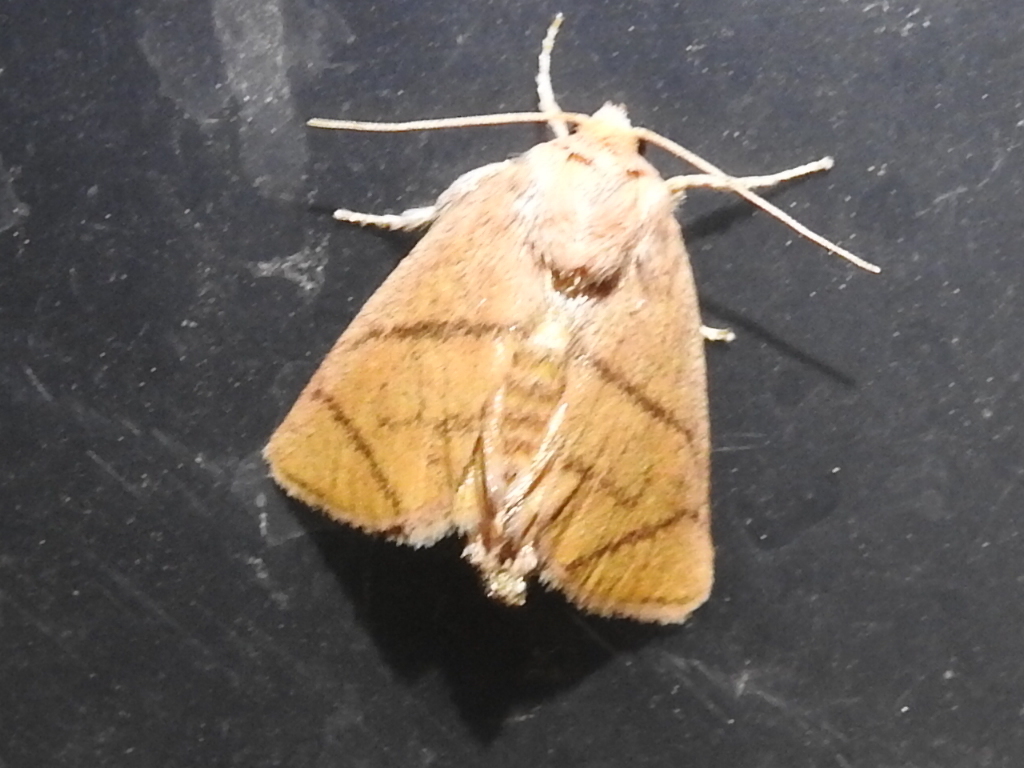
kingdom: Animalia
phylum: Arthropoda
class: Insecta
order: Lepidoptera
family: Limacodidae
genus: Apoda
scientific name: Apoda y-inversa
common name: Yellow-collared slug moth
